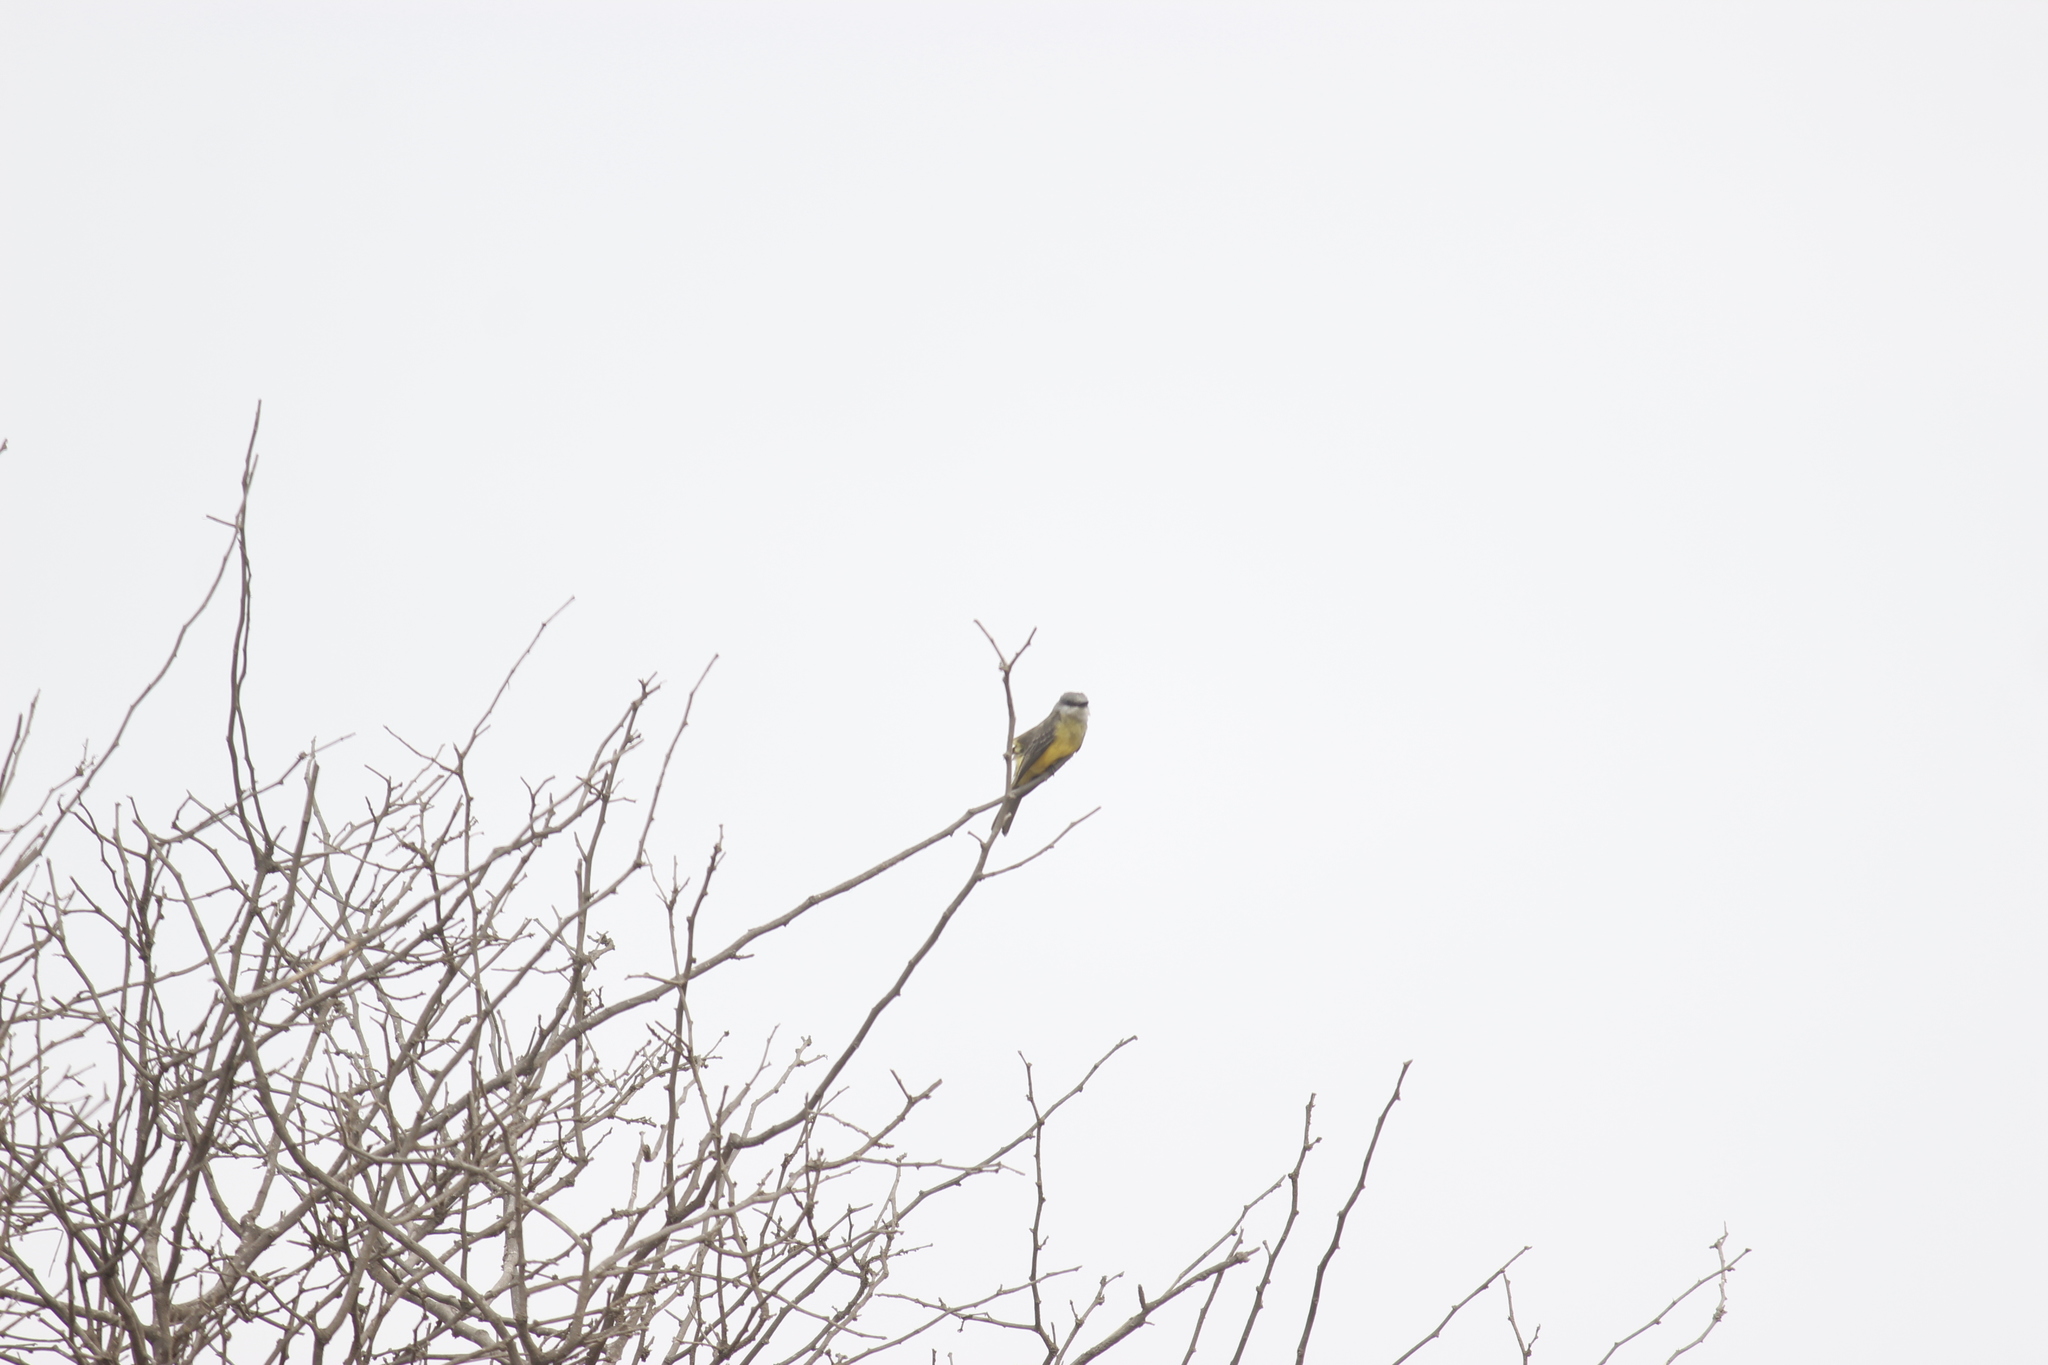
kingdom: Animalia
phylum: Chordata
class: Aves
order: Passeriformes
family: Tyrannidae
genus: Tyrannus
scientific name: Tyrannus melancholicus
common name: Tropical kingbird
